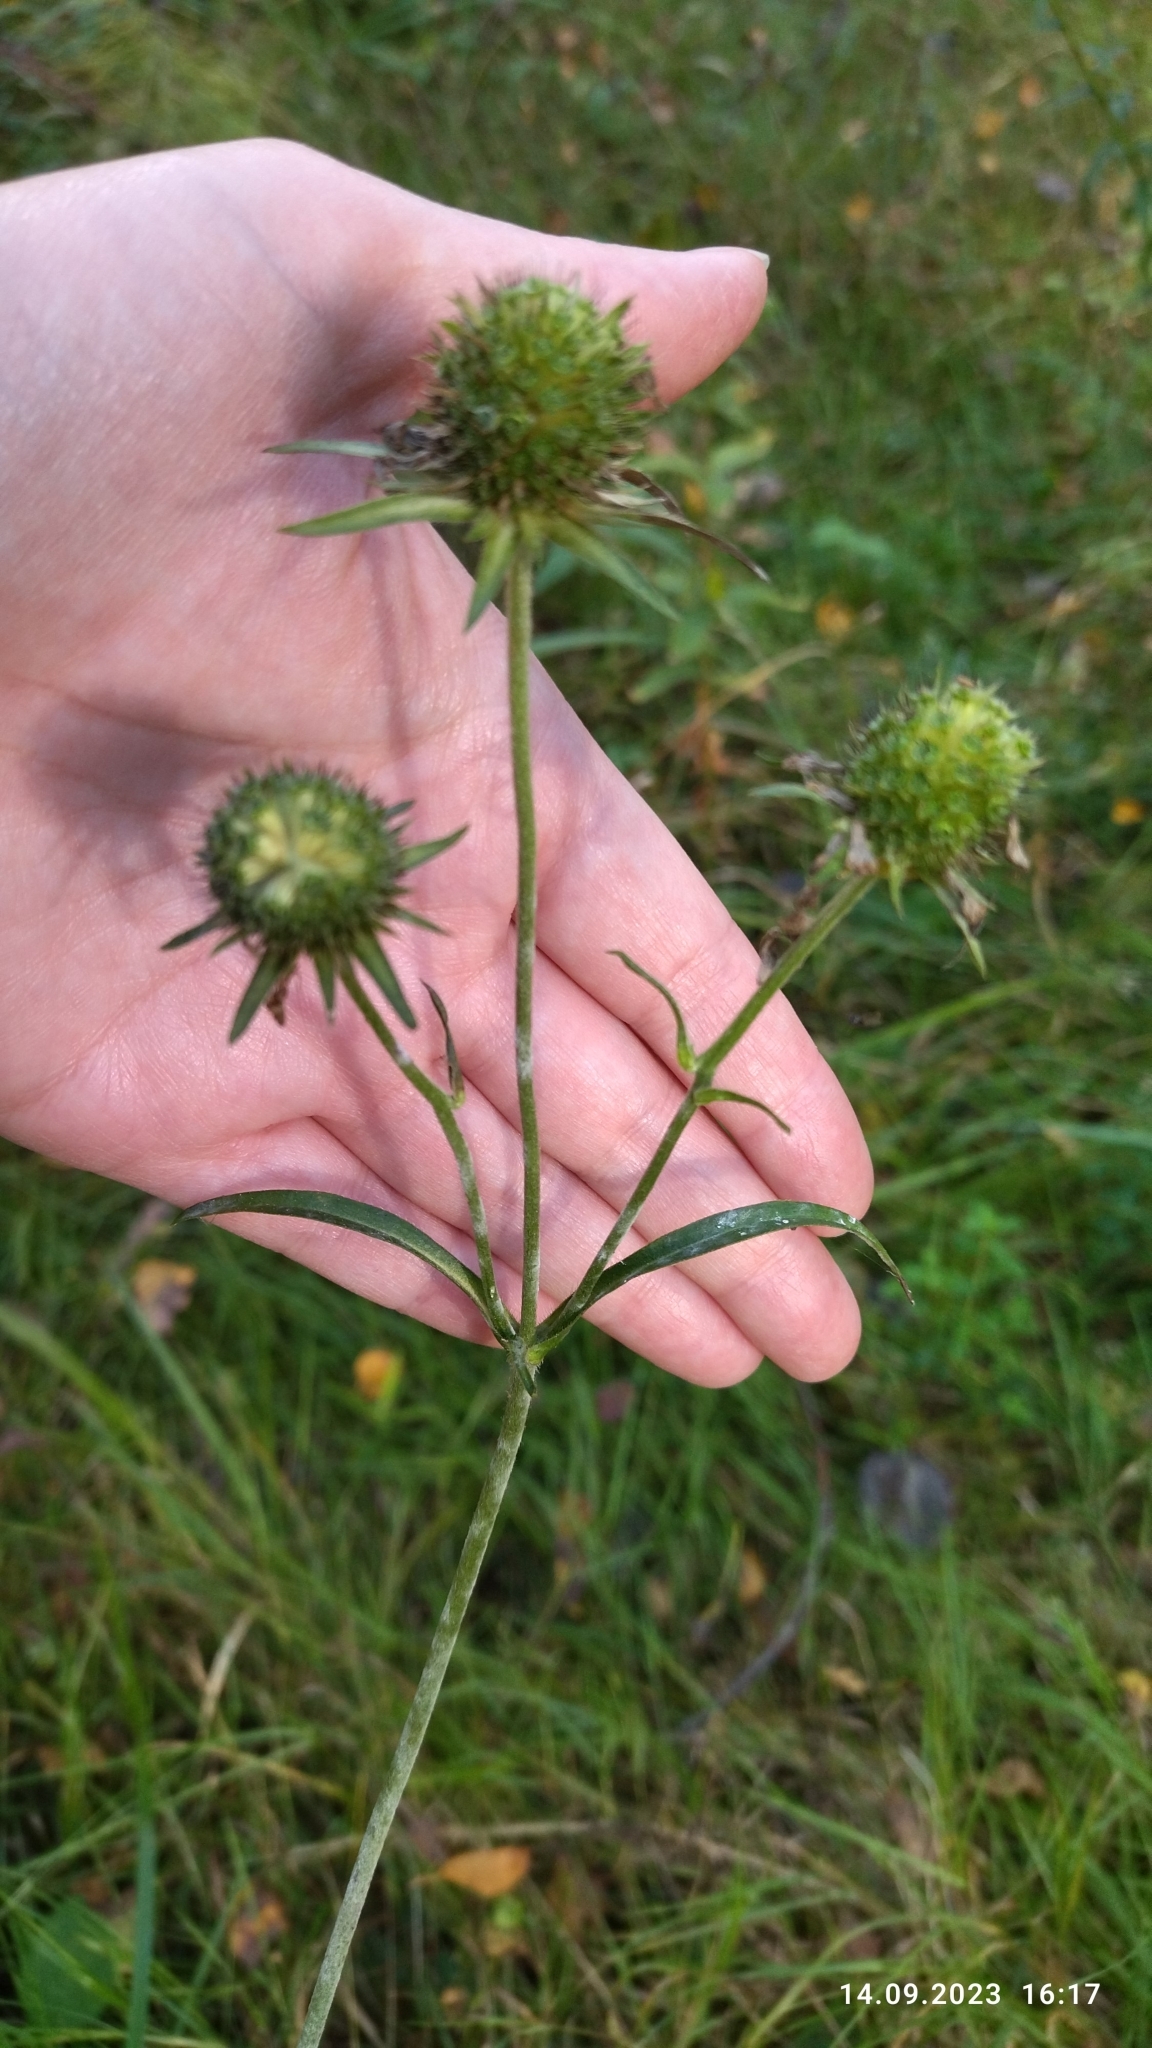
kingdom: Plantae
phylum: Tracheophyta
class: Magnoliopsida
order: Dipsacales
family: Caprifoliaceae
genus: Succisa
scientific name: Succisa pratensis
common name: Devil's-bit
